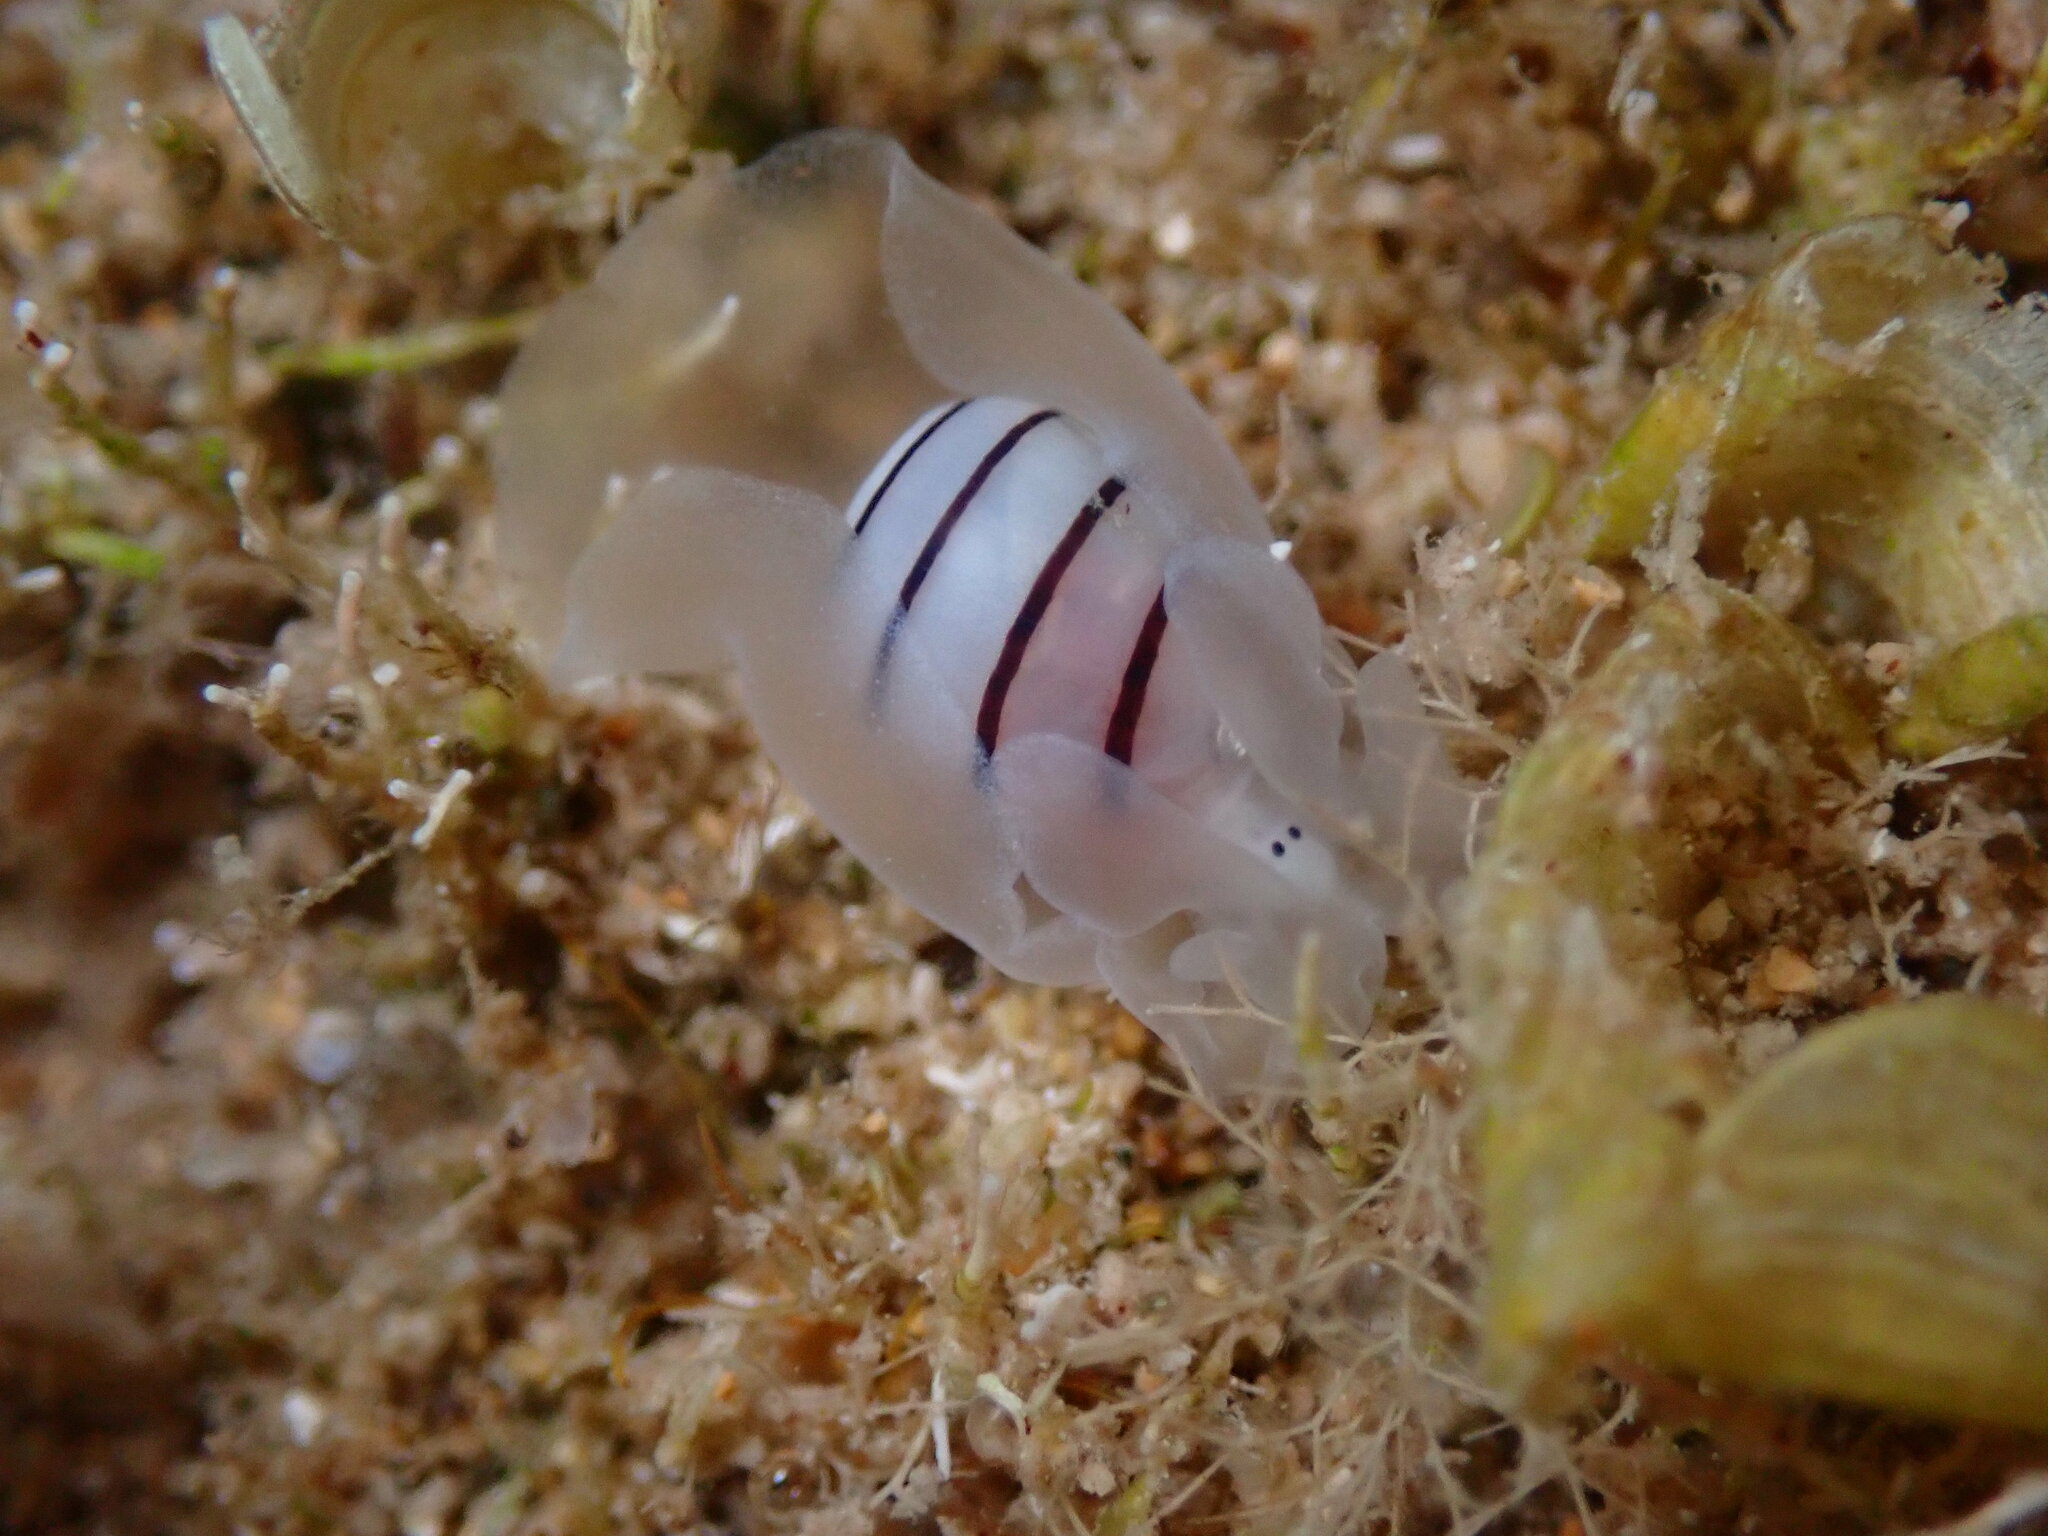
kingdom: Animalia
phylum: Mollusca
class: Gastropoda
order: Cephalaspidea
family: Aplustridae
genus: Aplustrum
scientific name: Aplustrum amplustre
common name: Royal paperbubble
